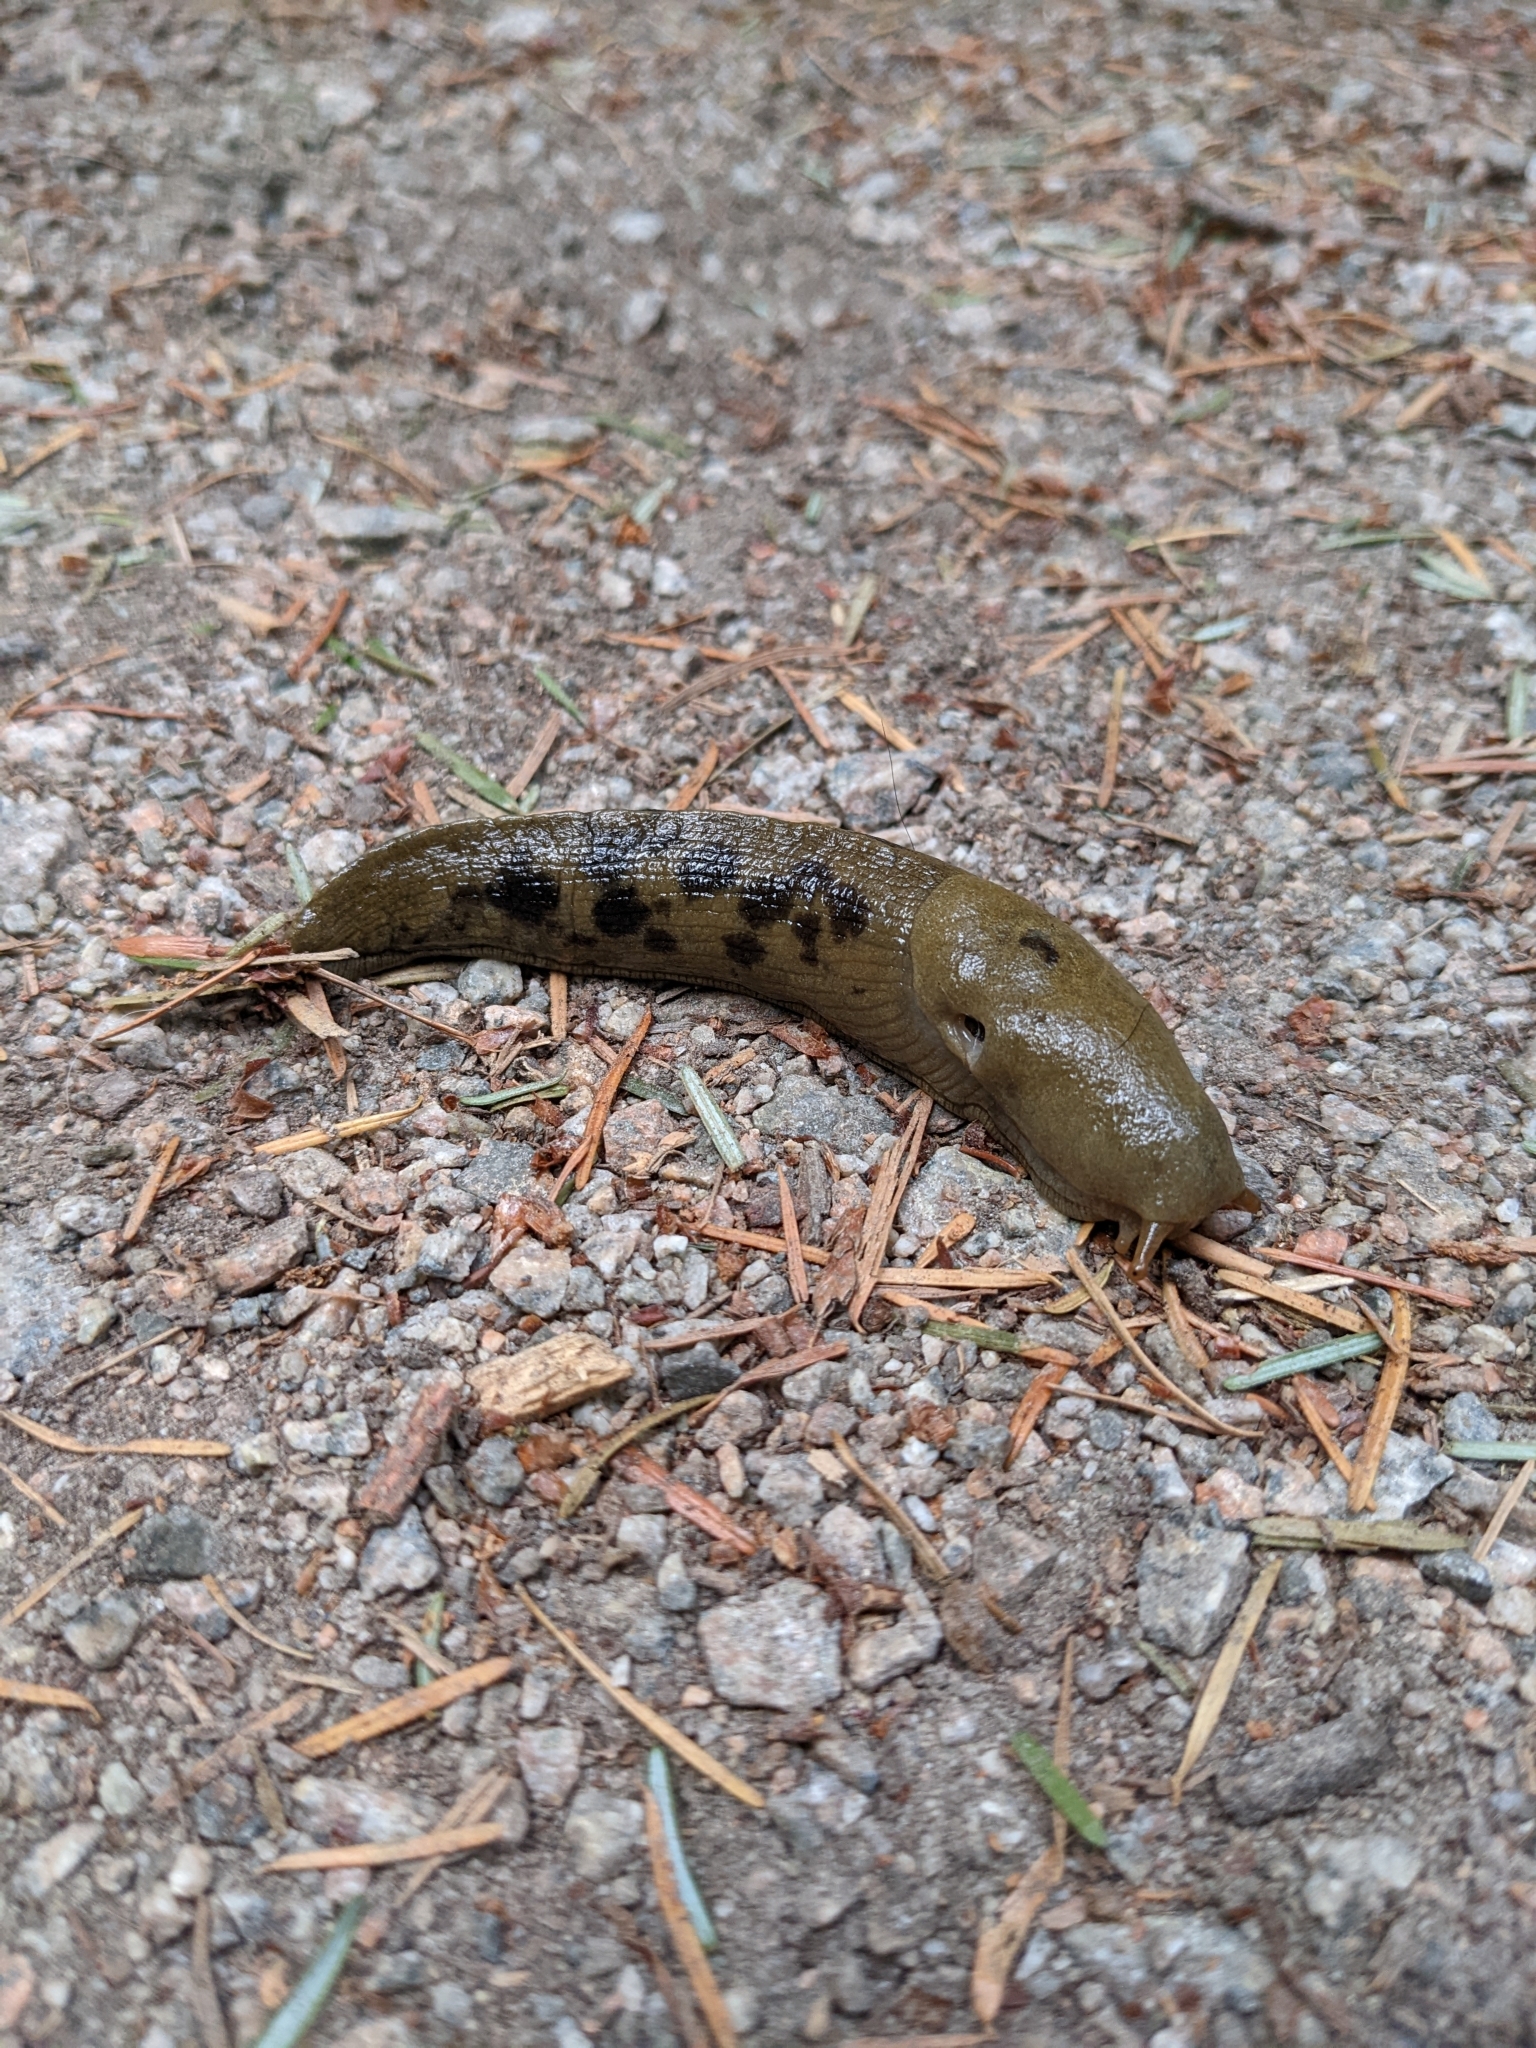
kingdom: Animalia
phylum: Mollusca
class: Gastropoda
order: Stylommatophora
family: Ariolimacidae
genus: Ariolimax
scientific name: Ariolimax columbianus
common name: Pacific banana slug
